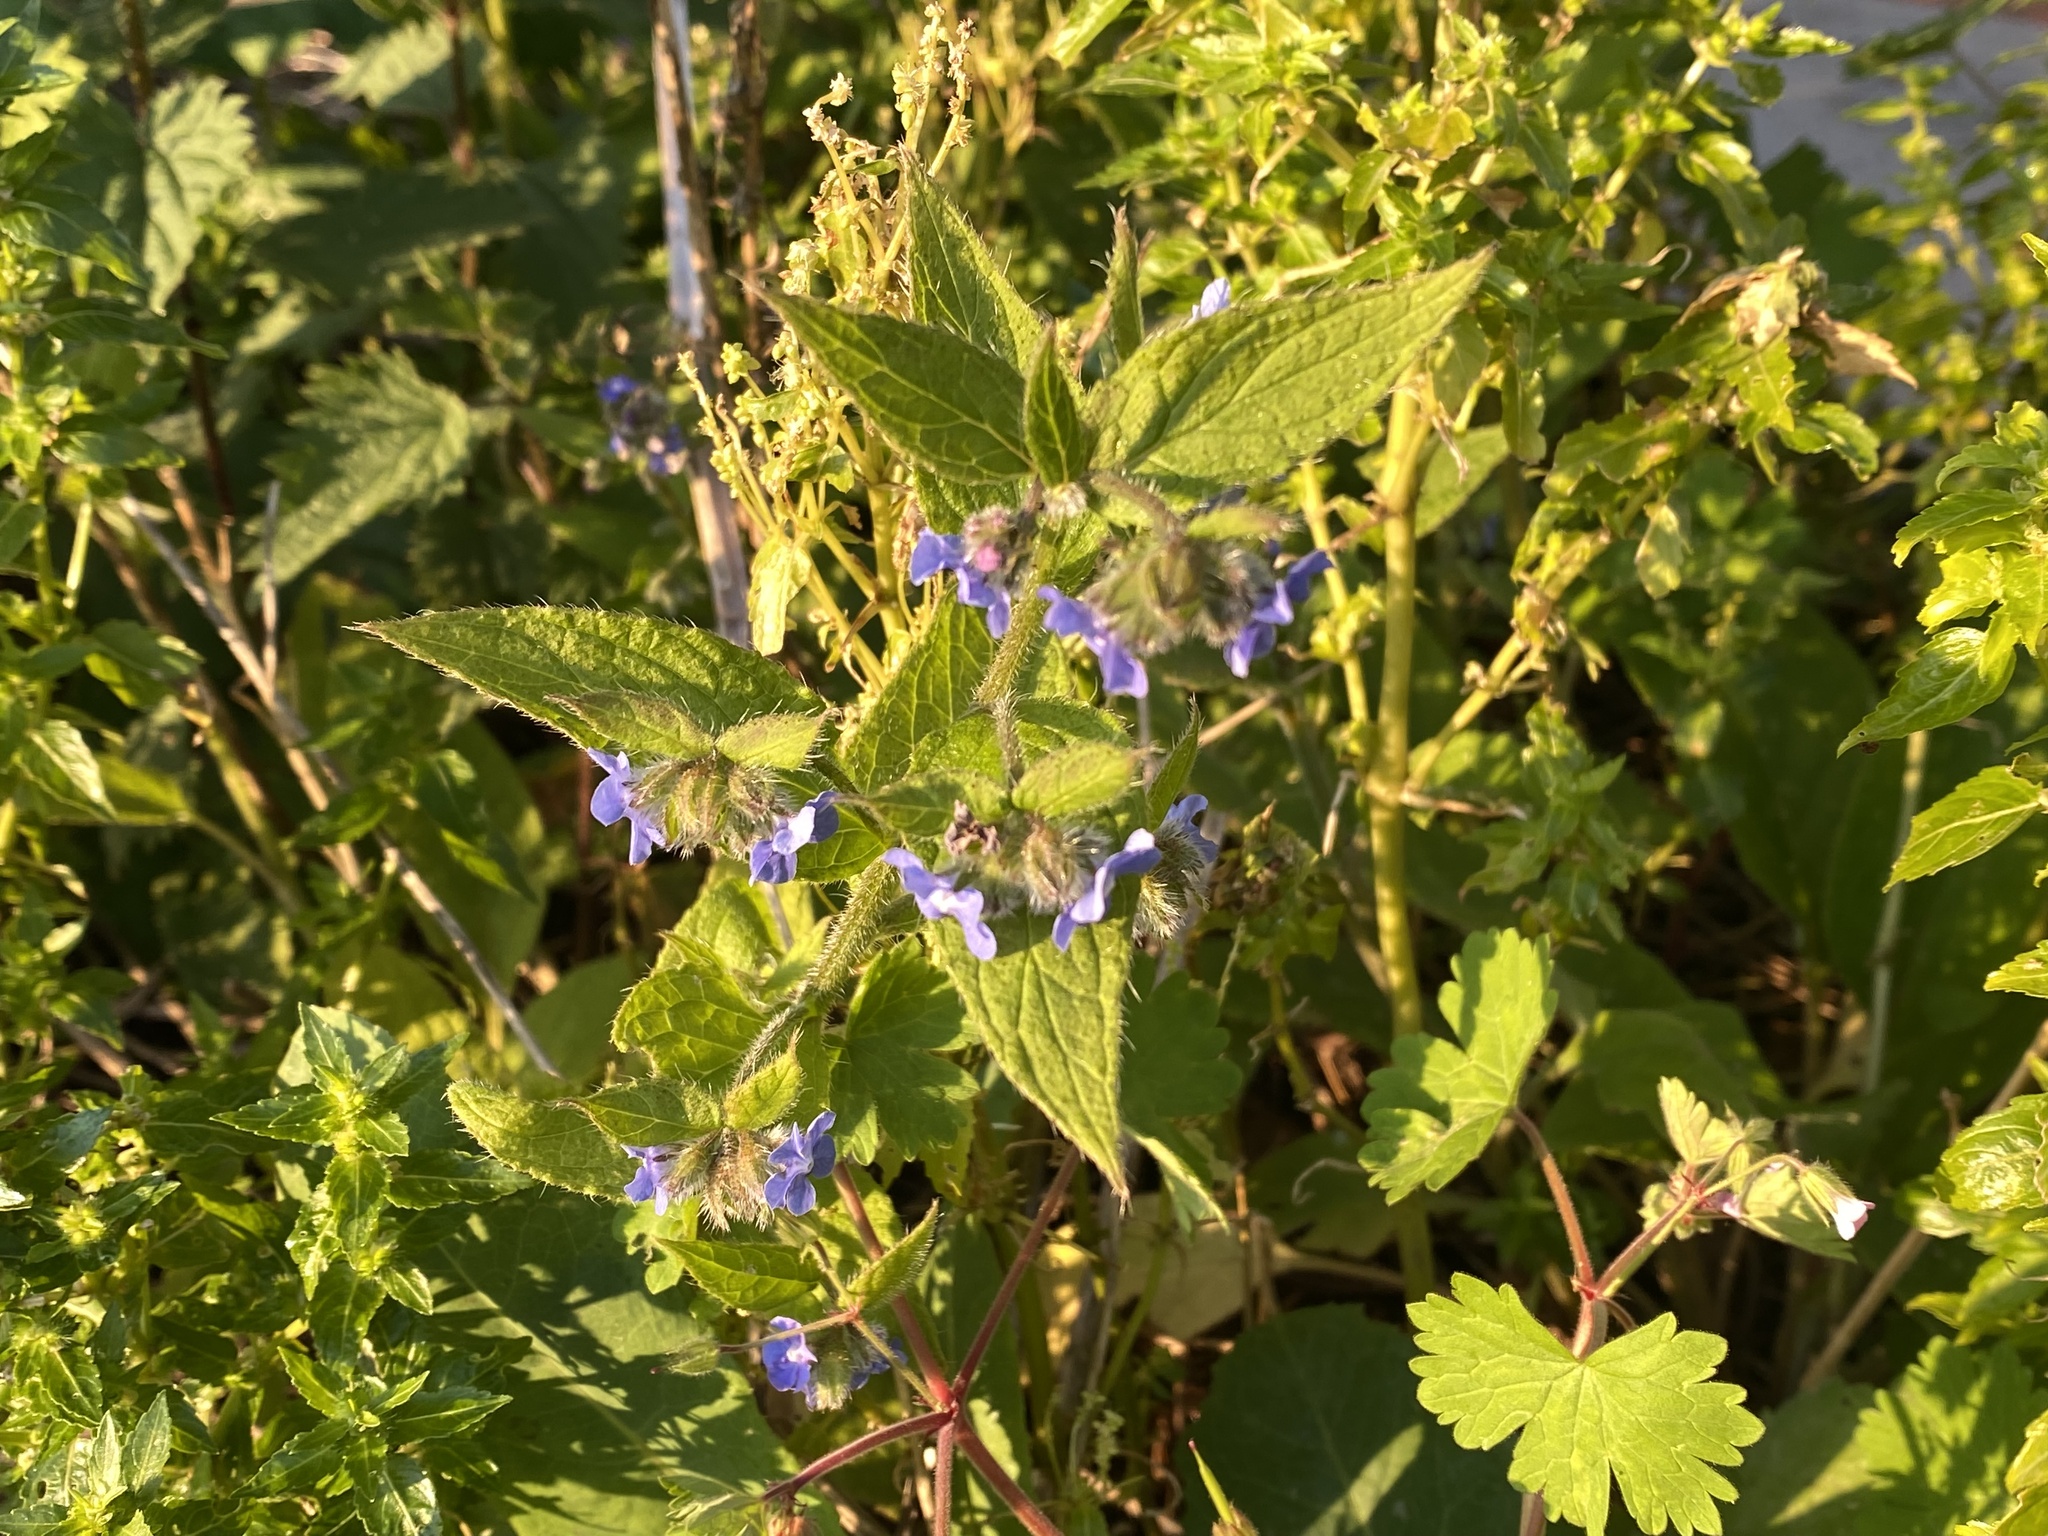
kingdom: Plantae
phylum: Tracheophyta
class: Magnoliopsida
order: Boraginales
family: Boraginaceae
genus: Pentaglottis
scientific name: Pentaglottis sempervirens
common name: Green alkanet
